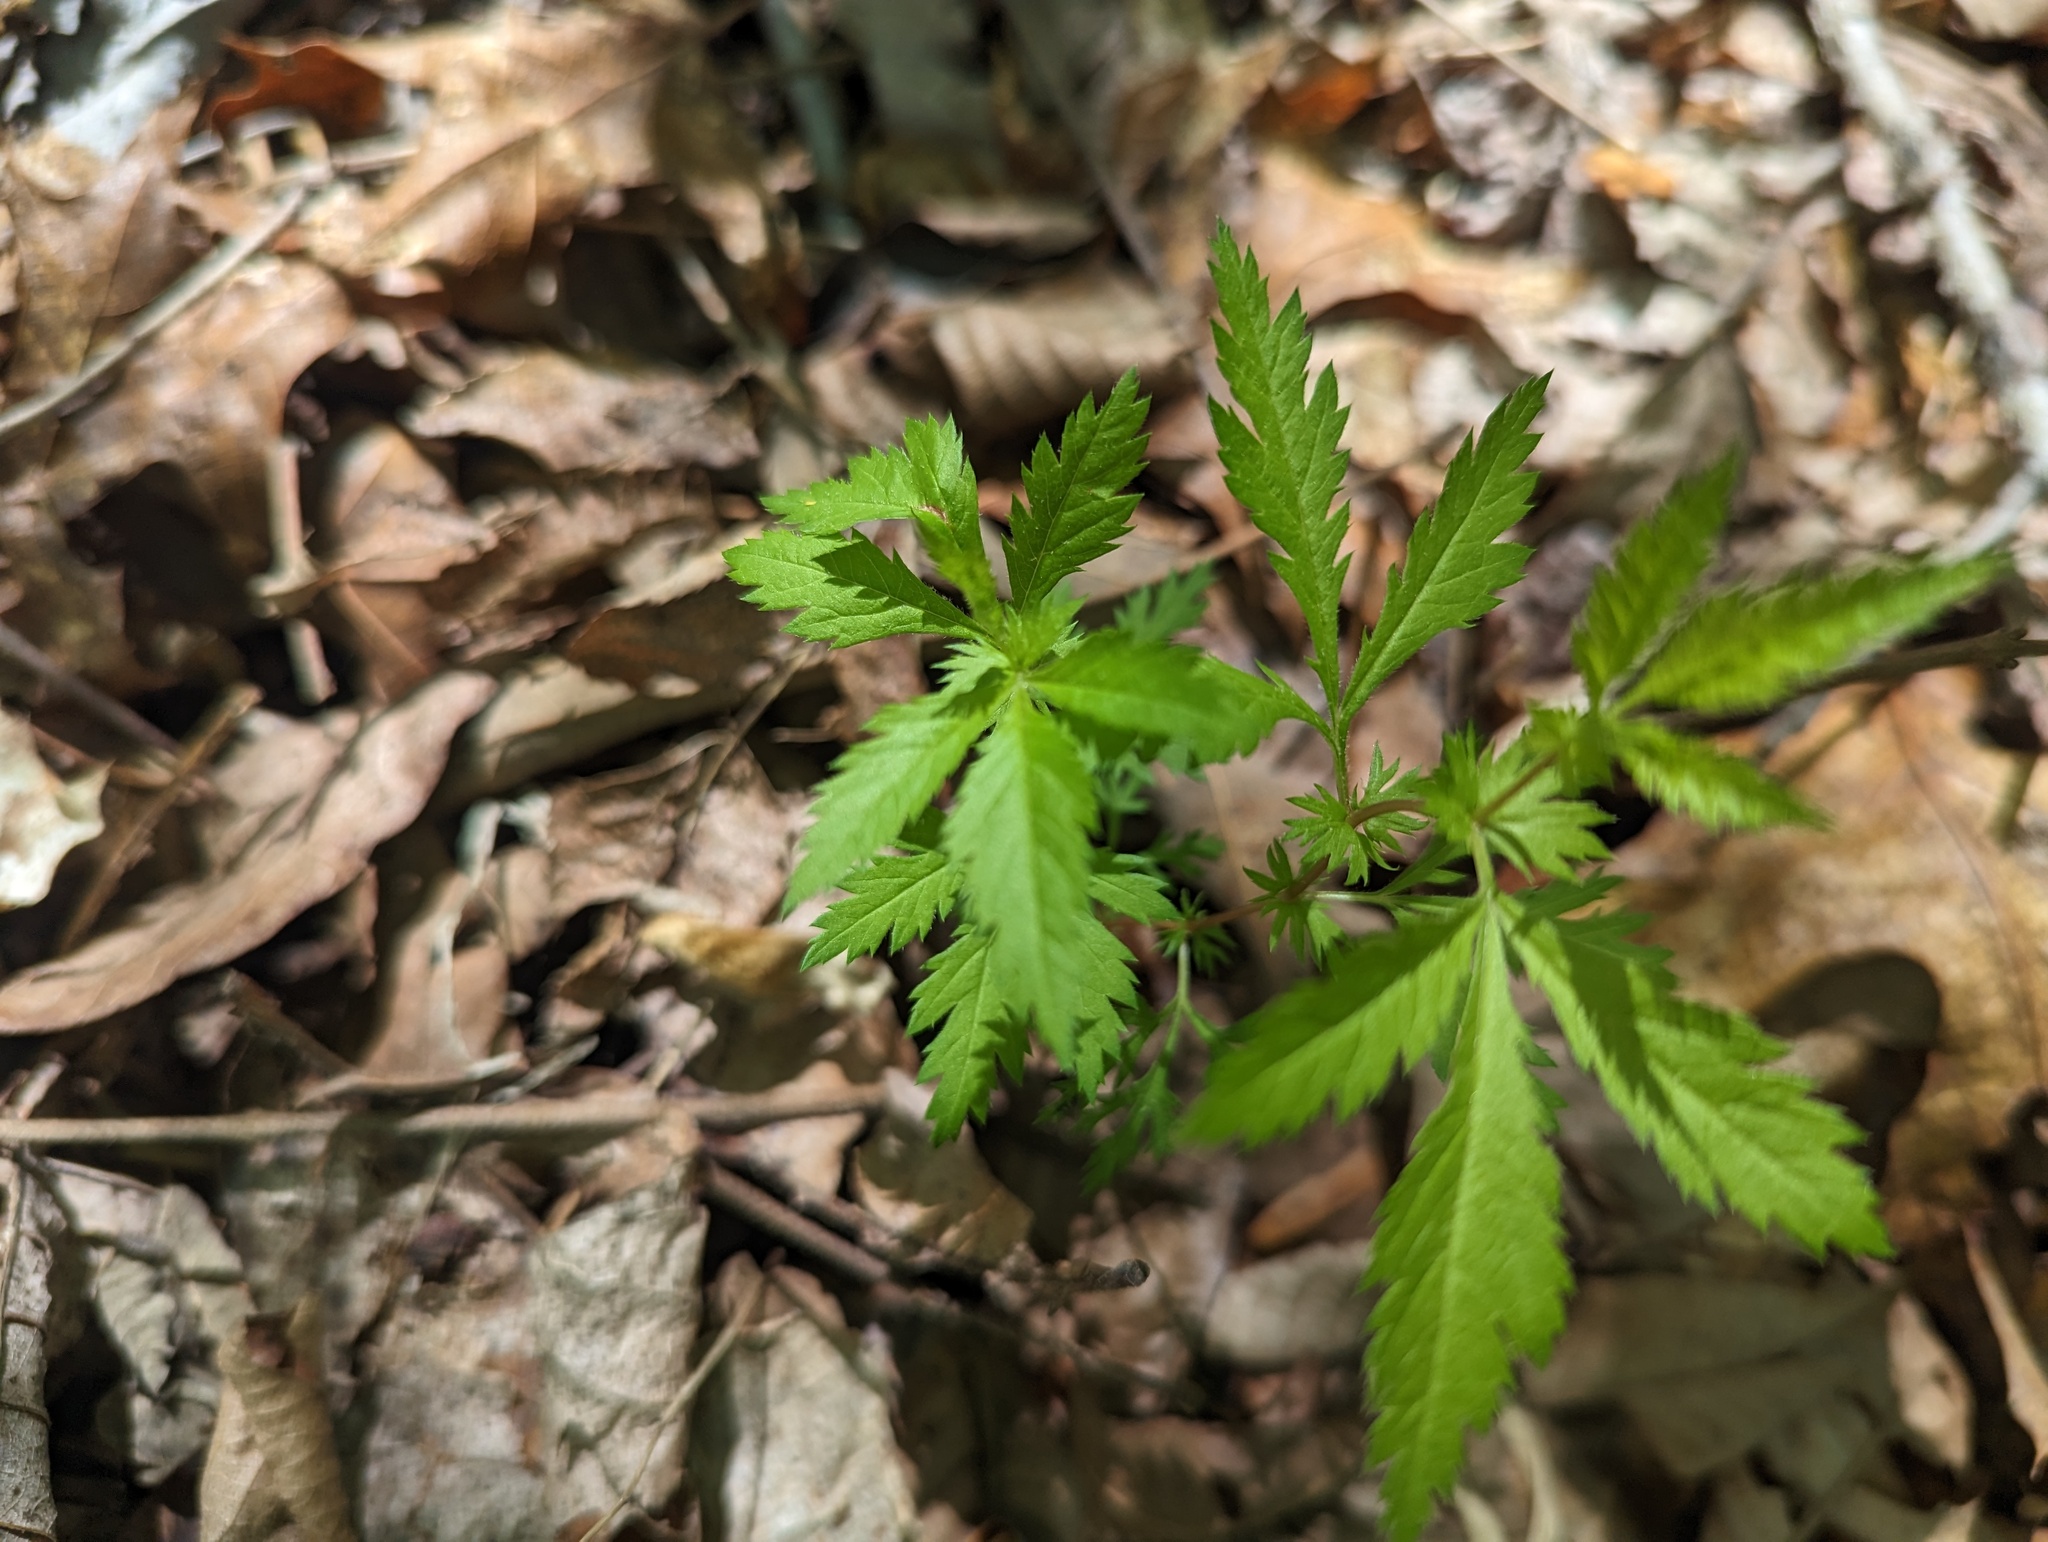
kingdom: Plantae
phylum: Tracheophyta
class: Magnoliopsida
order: Rosales
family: Rosaceae
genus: Gillenia
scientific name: Gillenia stipulata
